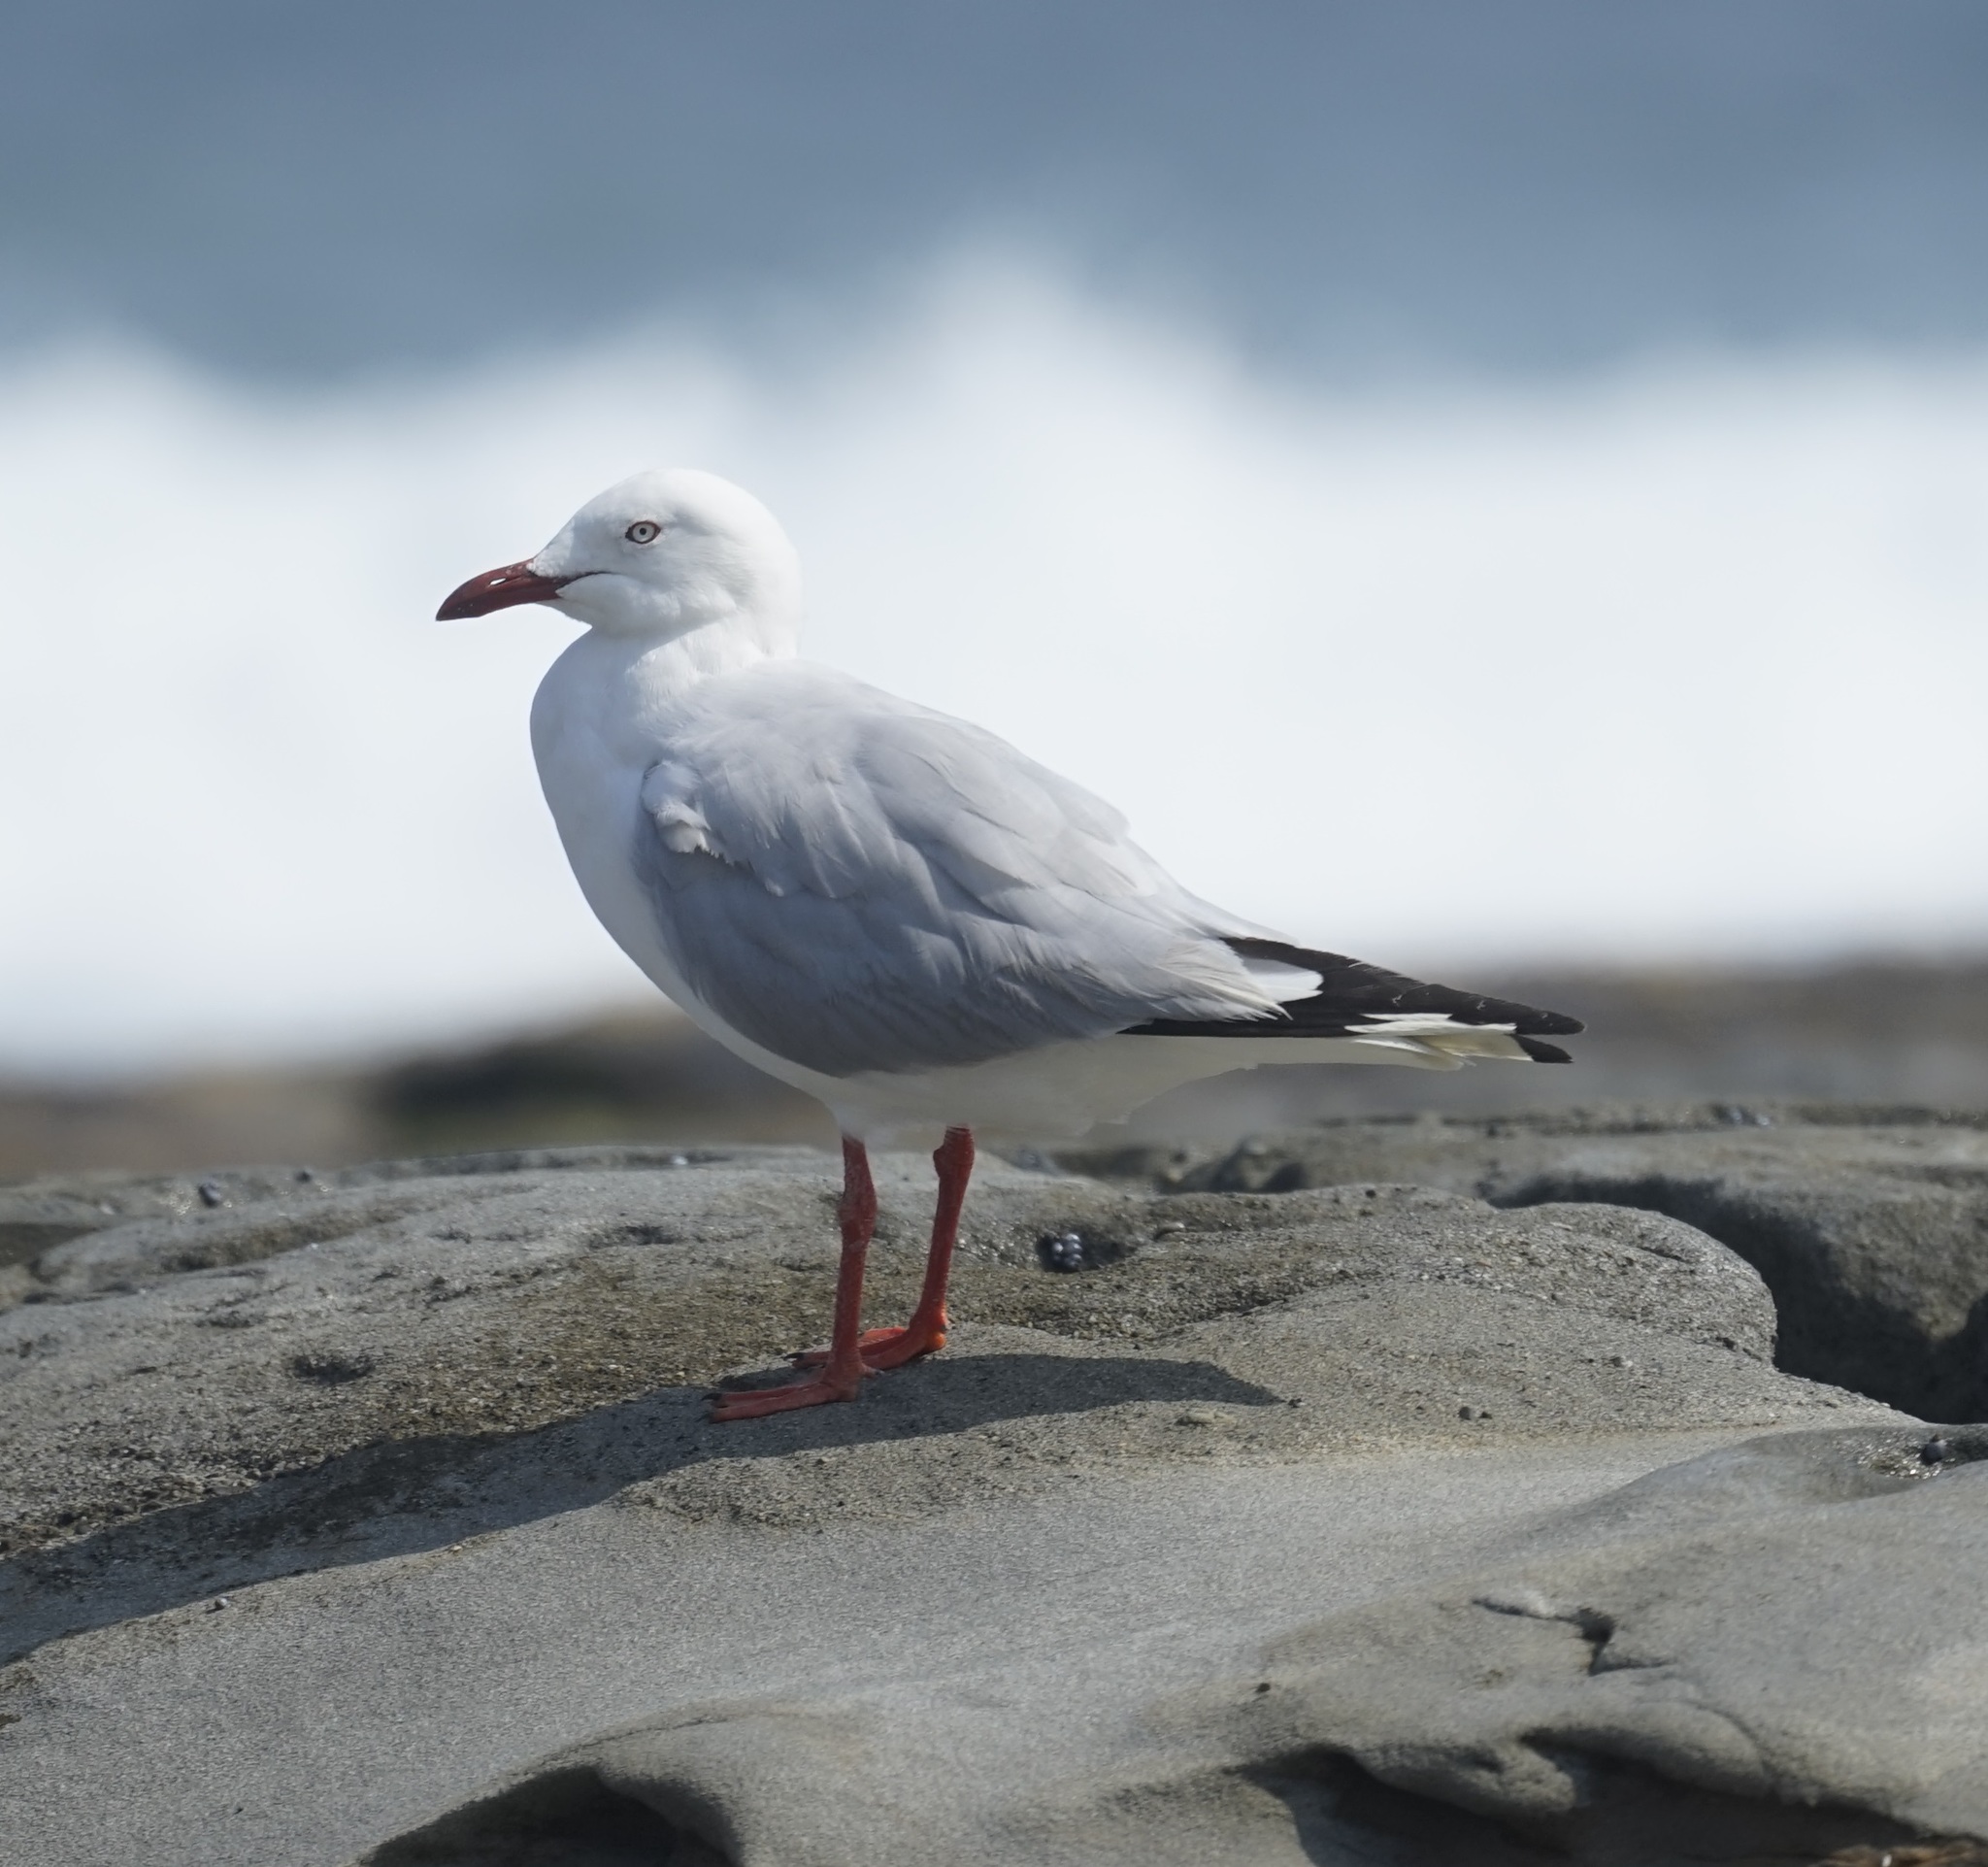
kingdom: Animalia
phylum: Chordata
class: Aves
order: Charadriiformes
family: Laridae
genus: Chroicocephalus
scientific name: Chroicocephalus novaehollandiae
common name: Silver gull
